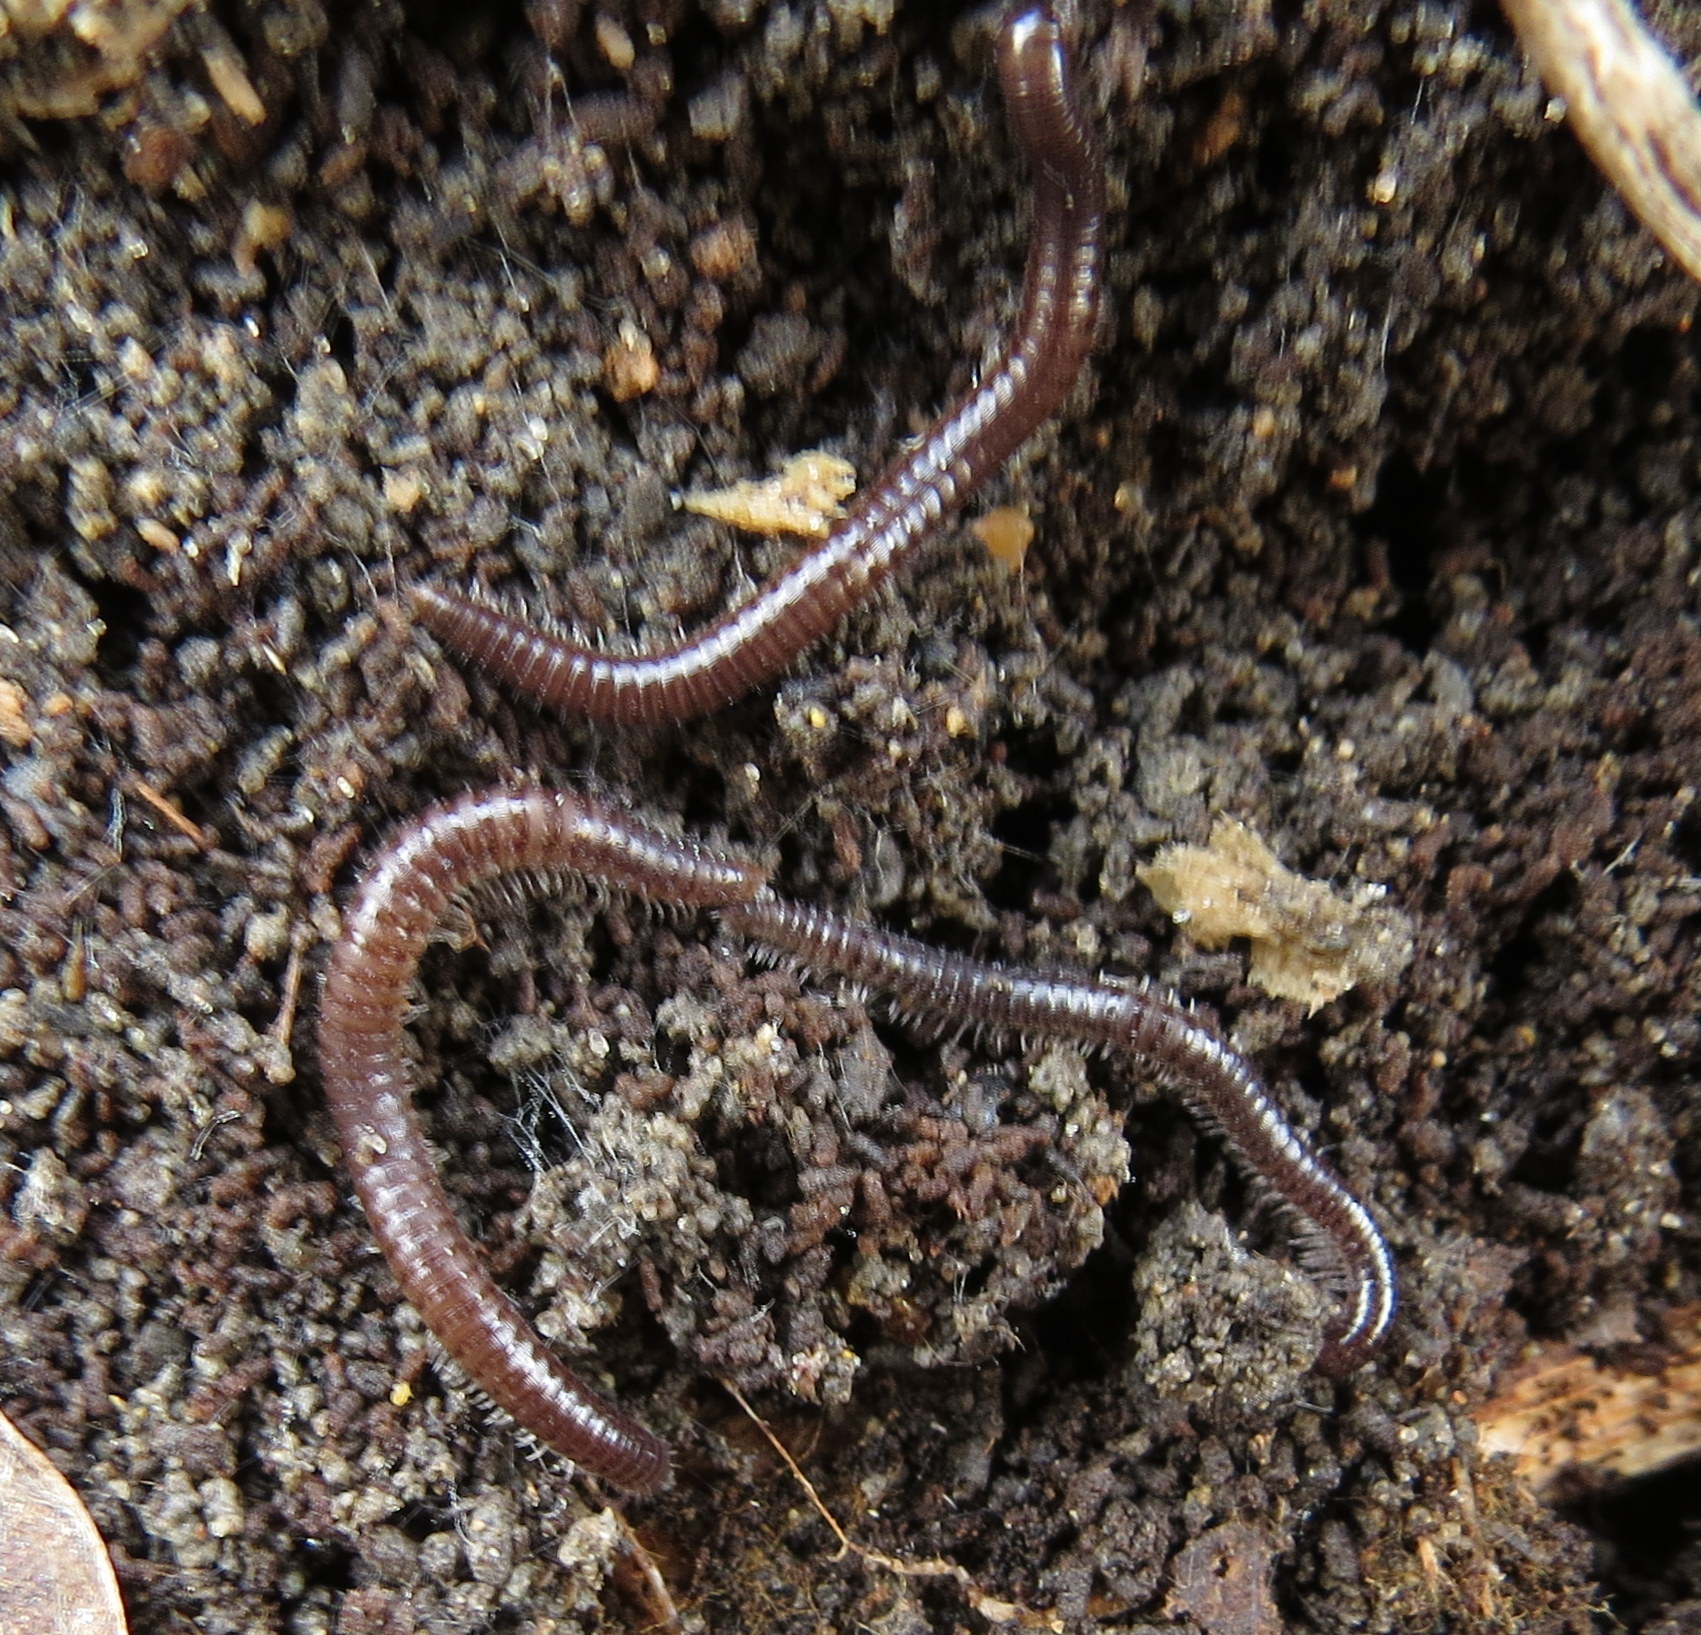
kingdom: Animalia
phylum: Arthropoda
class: Diplopoda
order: Julida
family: Julidae
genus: Ophyiulus
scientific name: Ophyiulus pilosus
